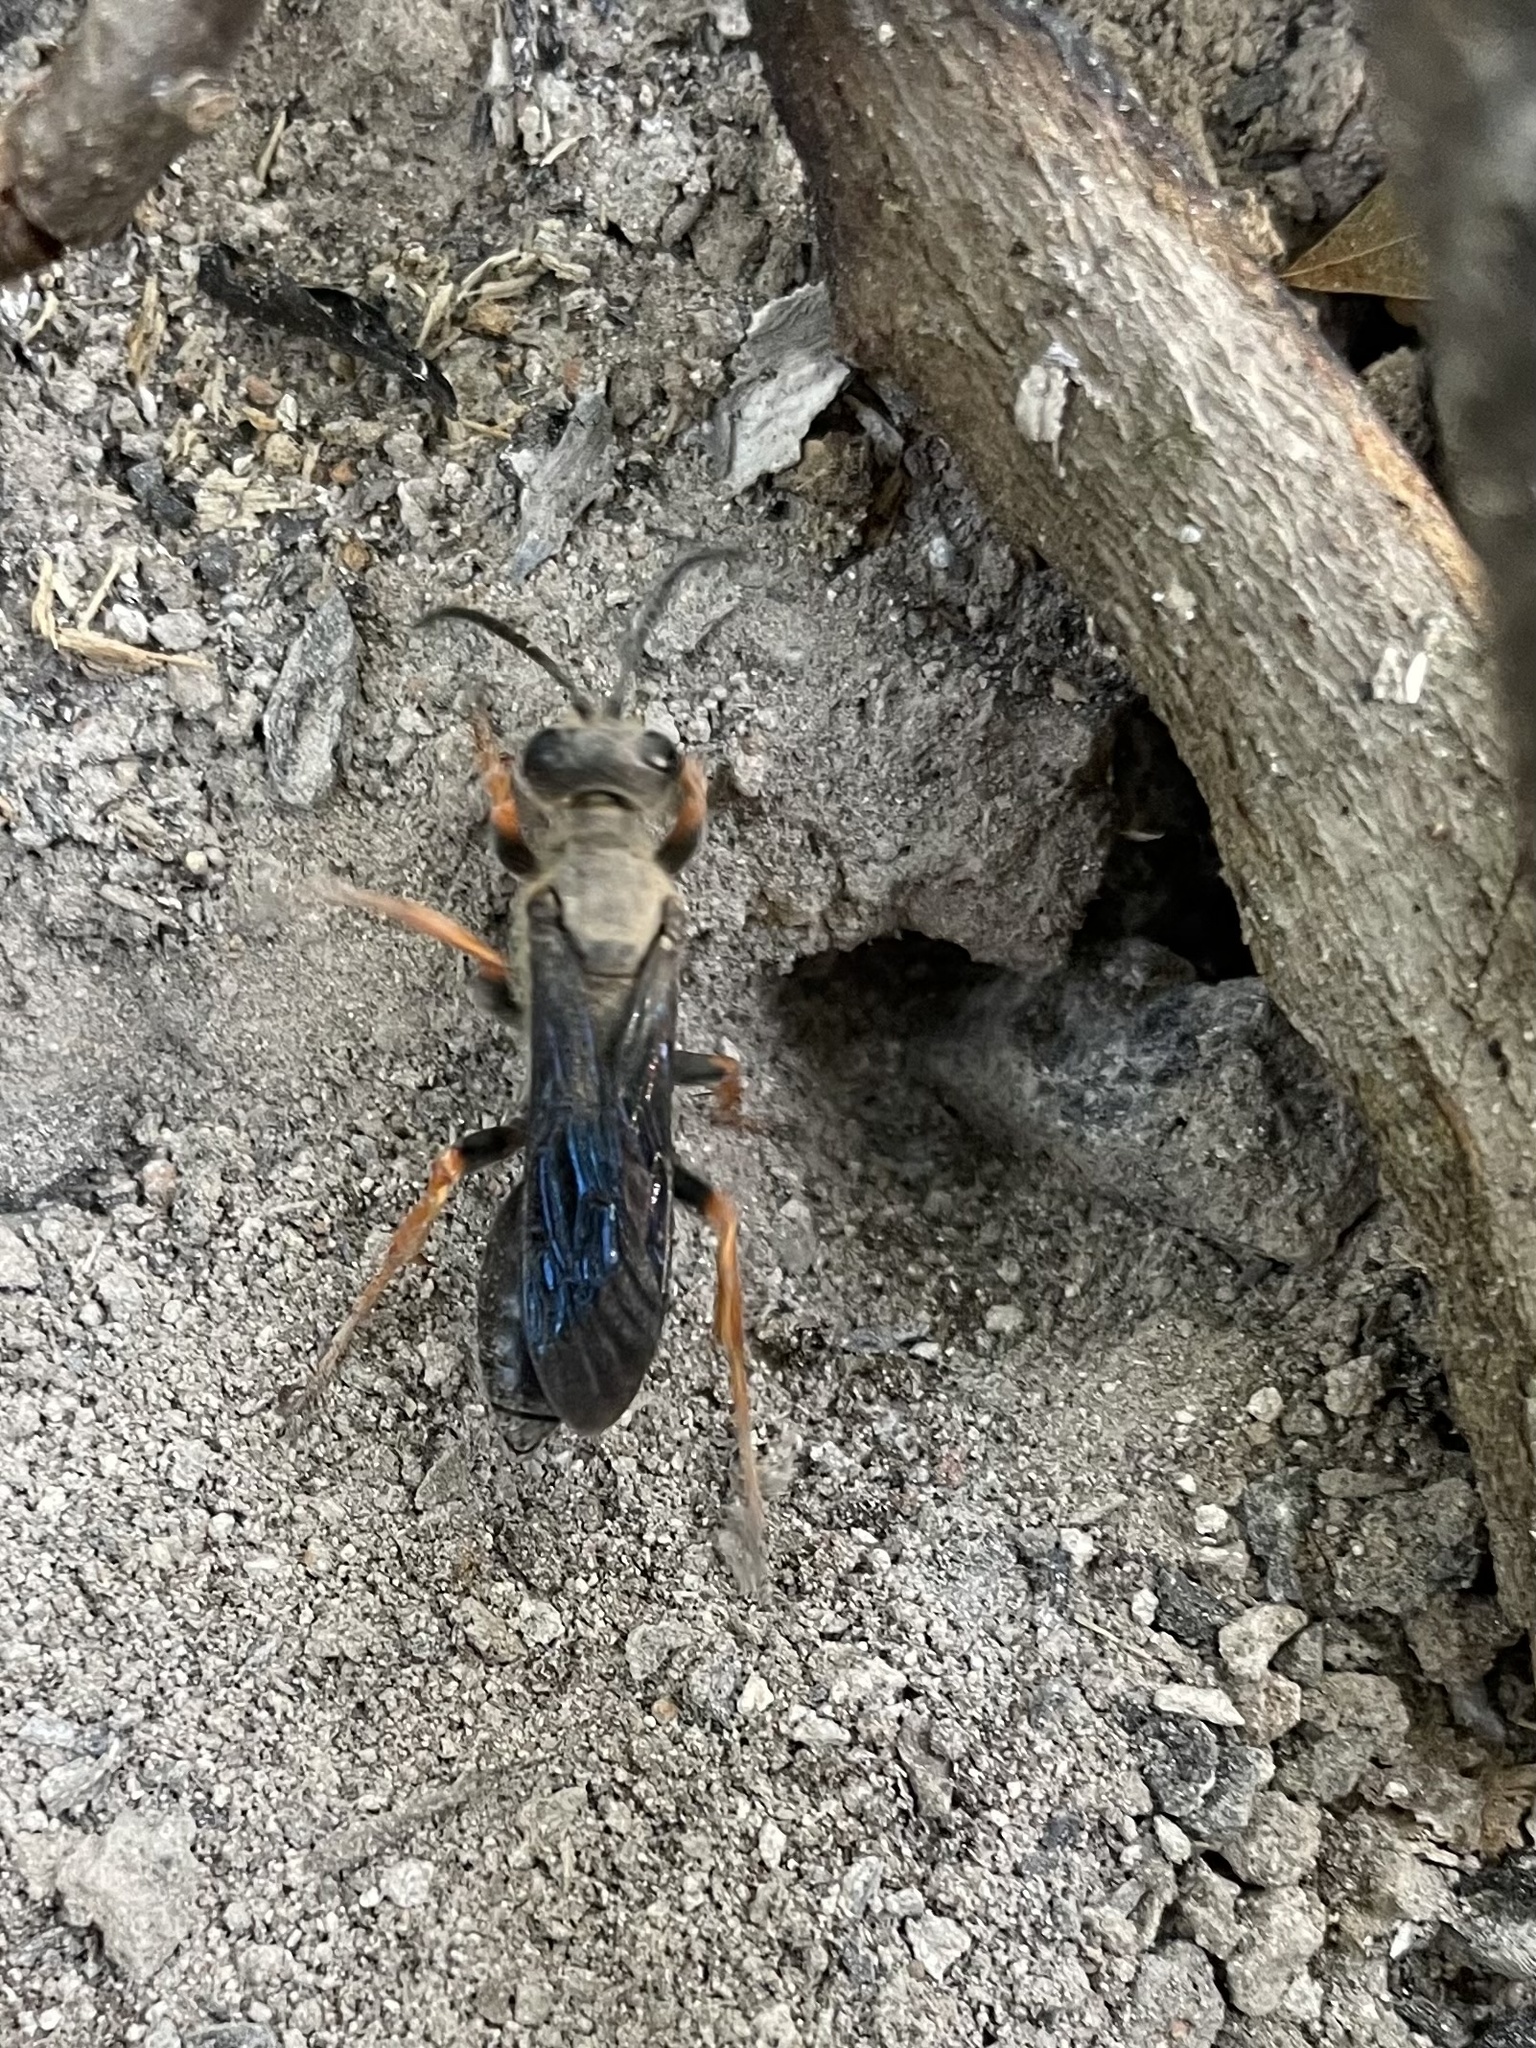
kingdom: Animalia
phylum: Arthropoda
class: Insecta
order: Hymenoptera
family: Sphecidae
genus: Sphex
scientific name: Sphex nudus
